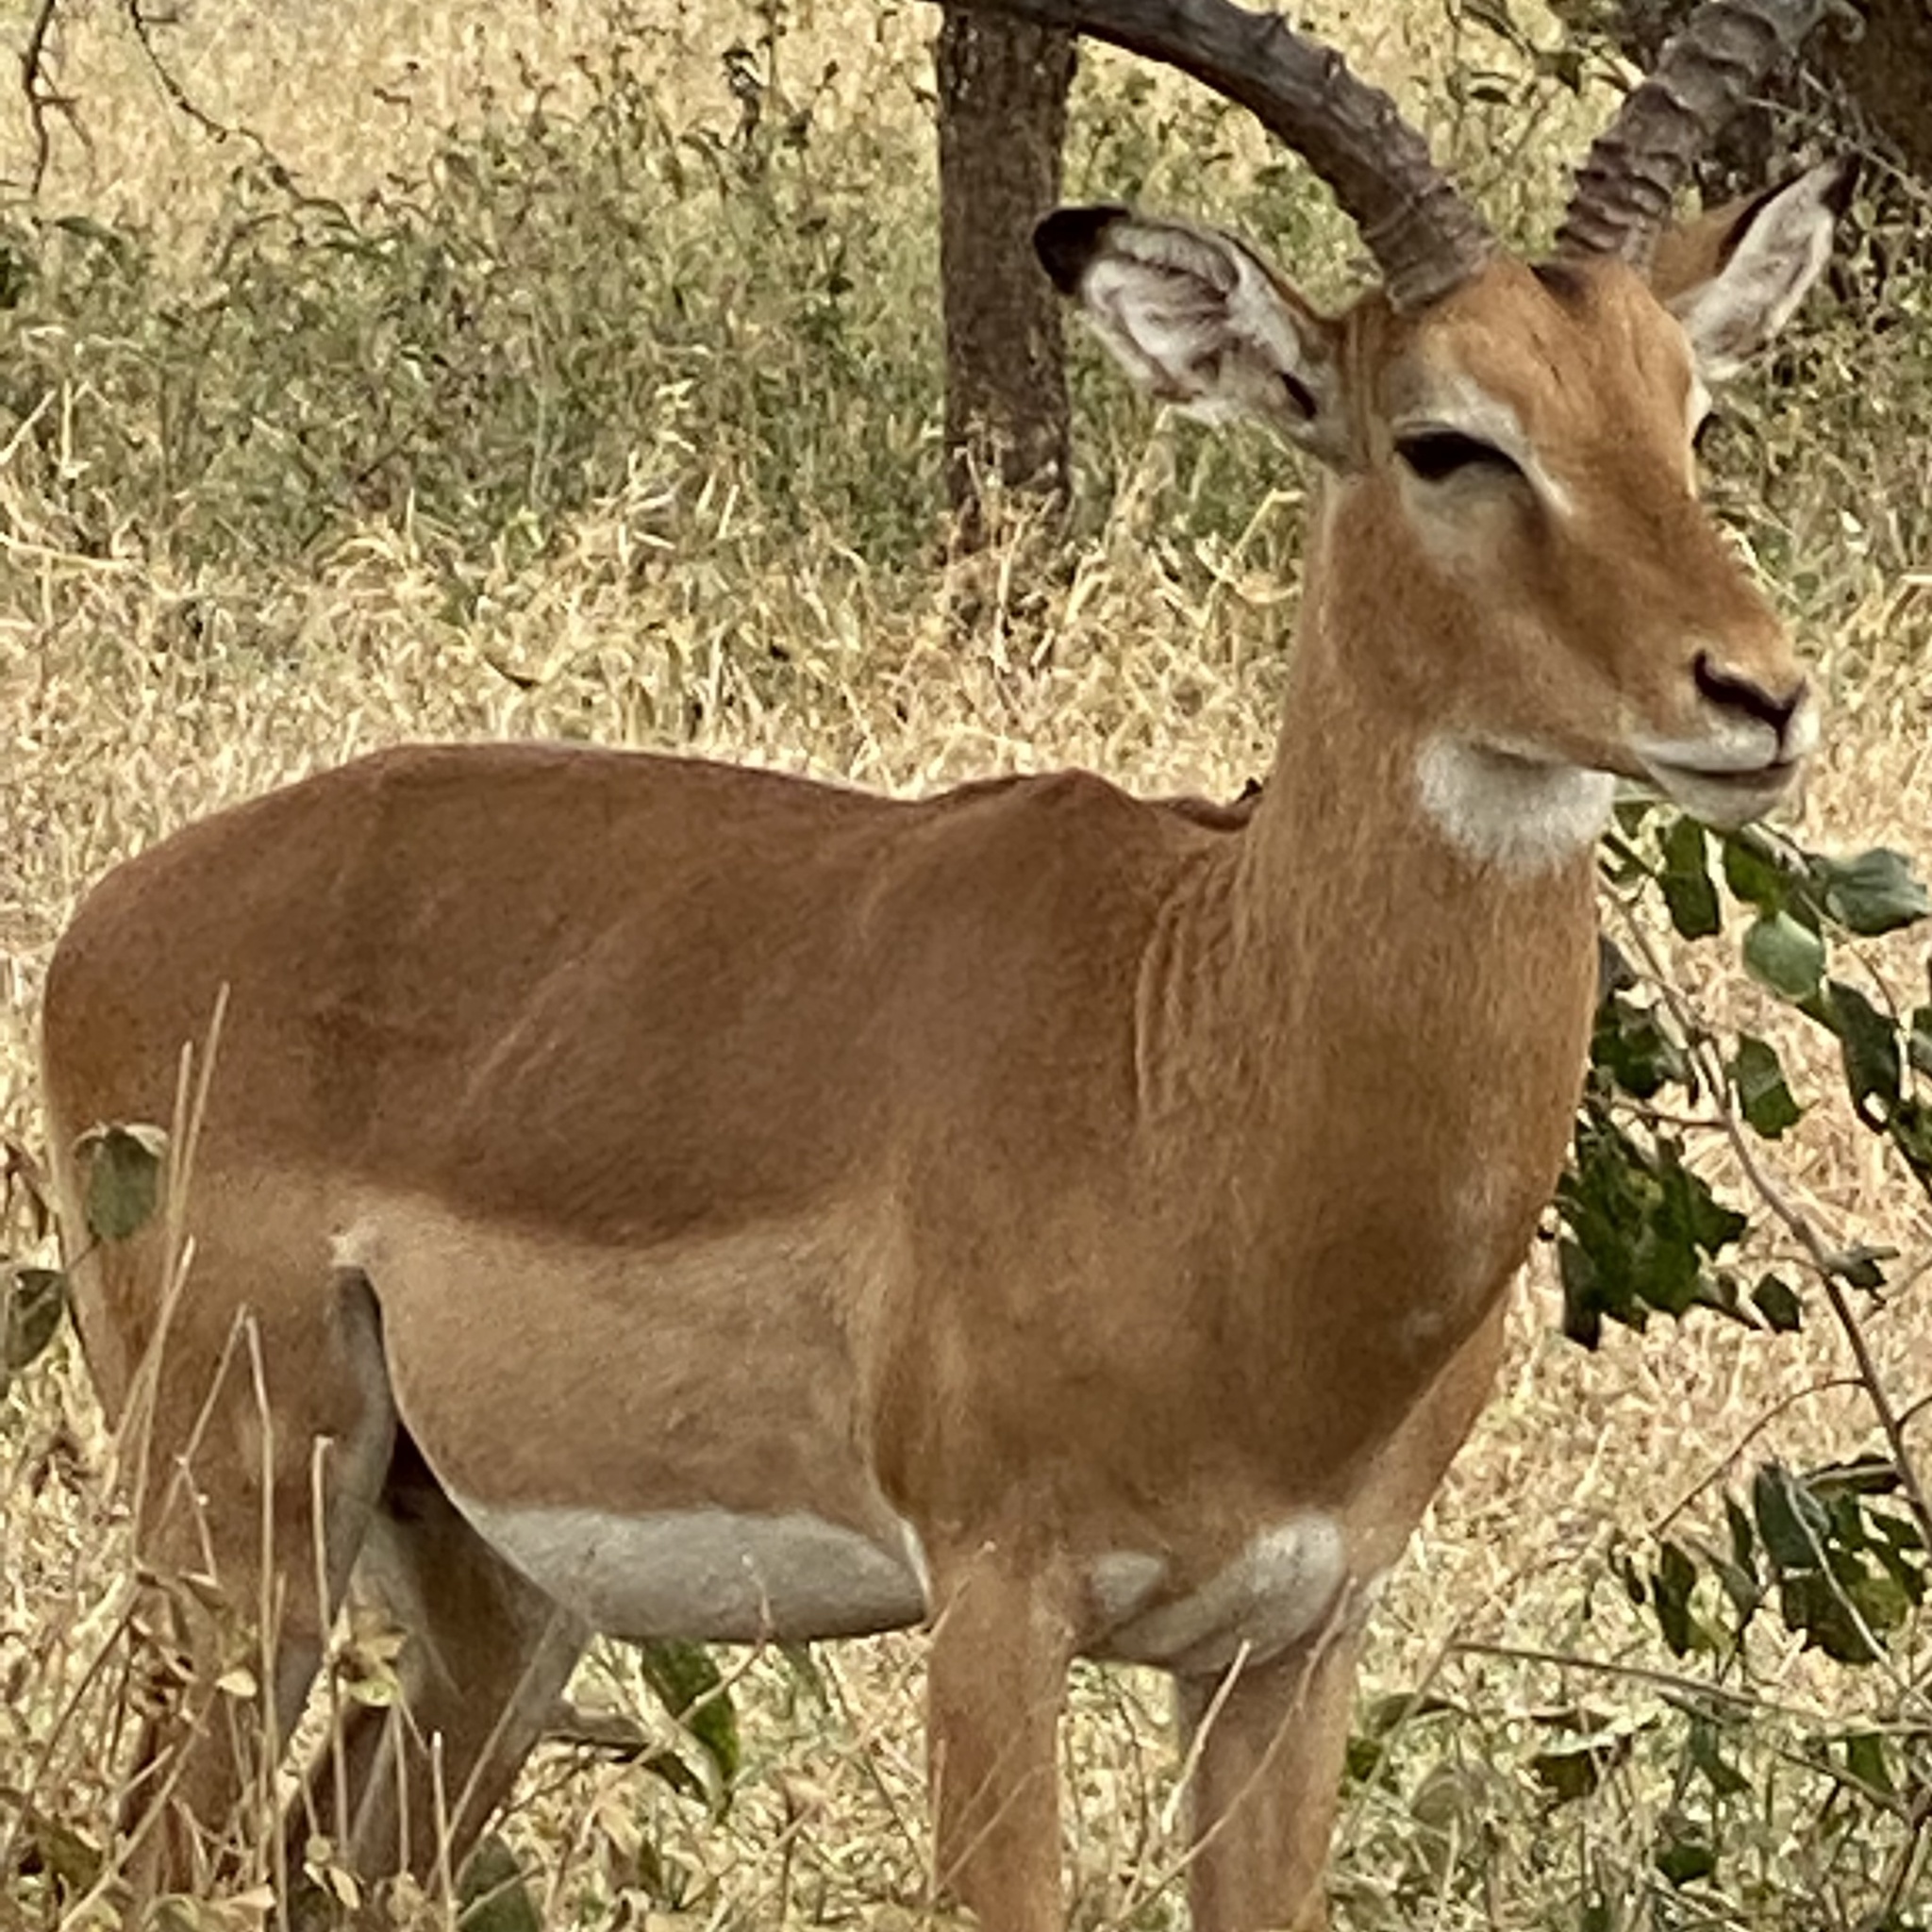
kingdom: Animalia
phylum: Chordata
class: Mammalia
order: Artiodactyla
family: Bovidae
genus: Aepyceros
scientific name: Aepyceros melampus
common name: Impala
